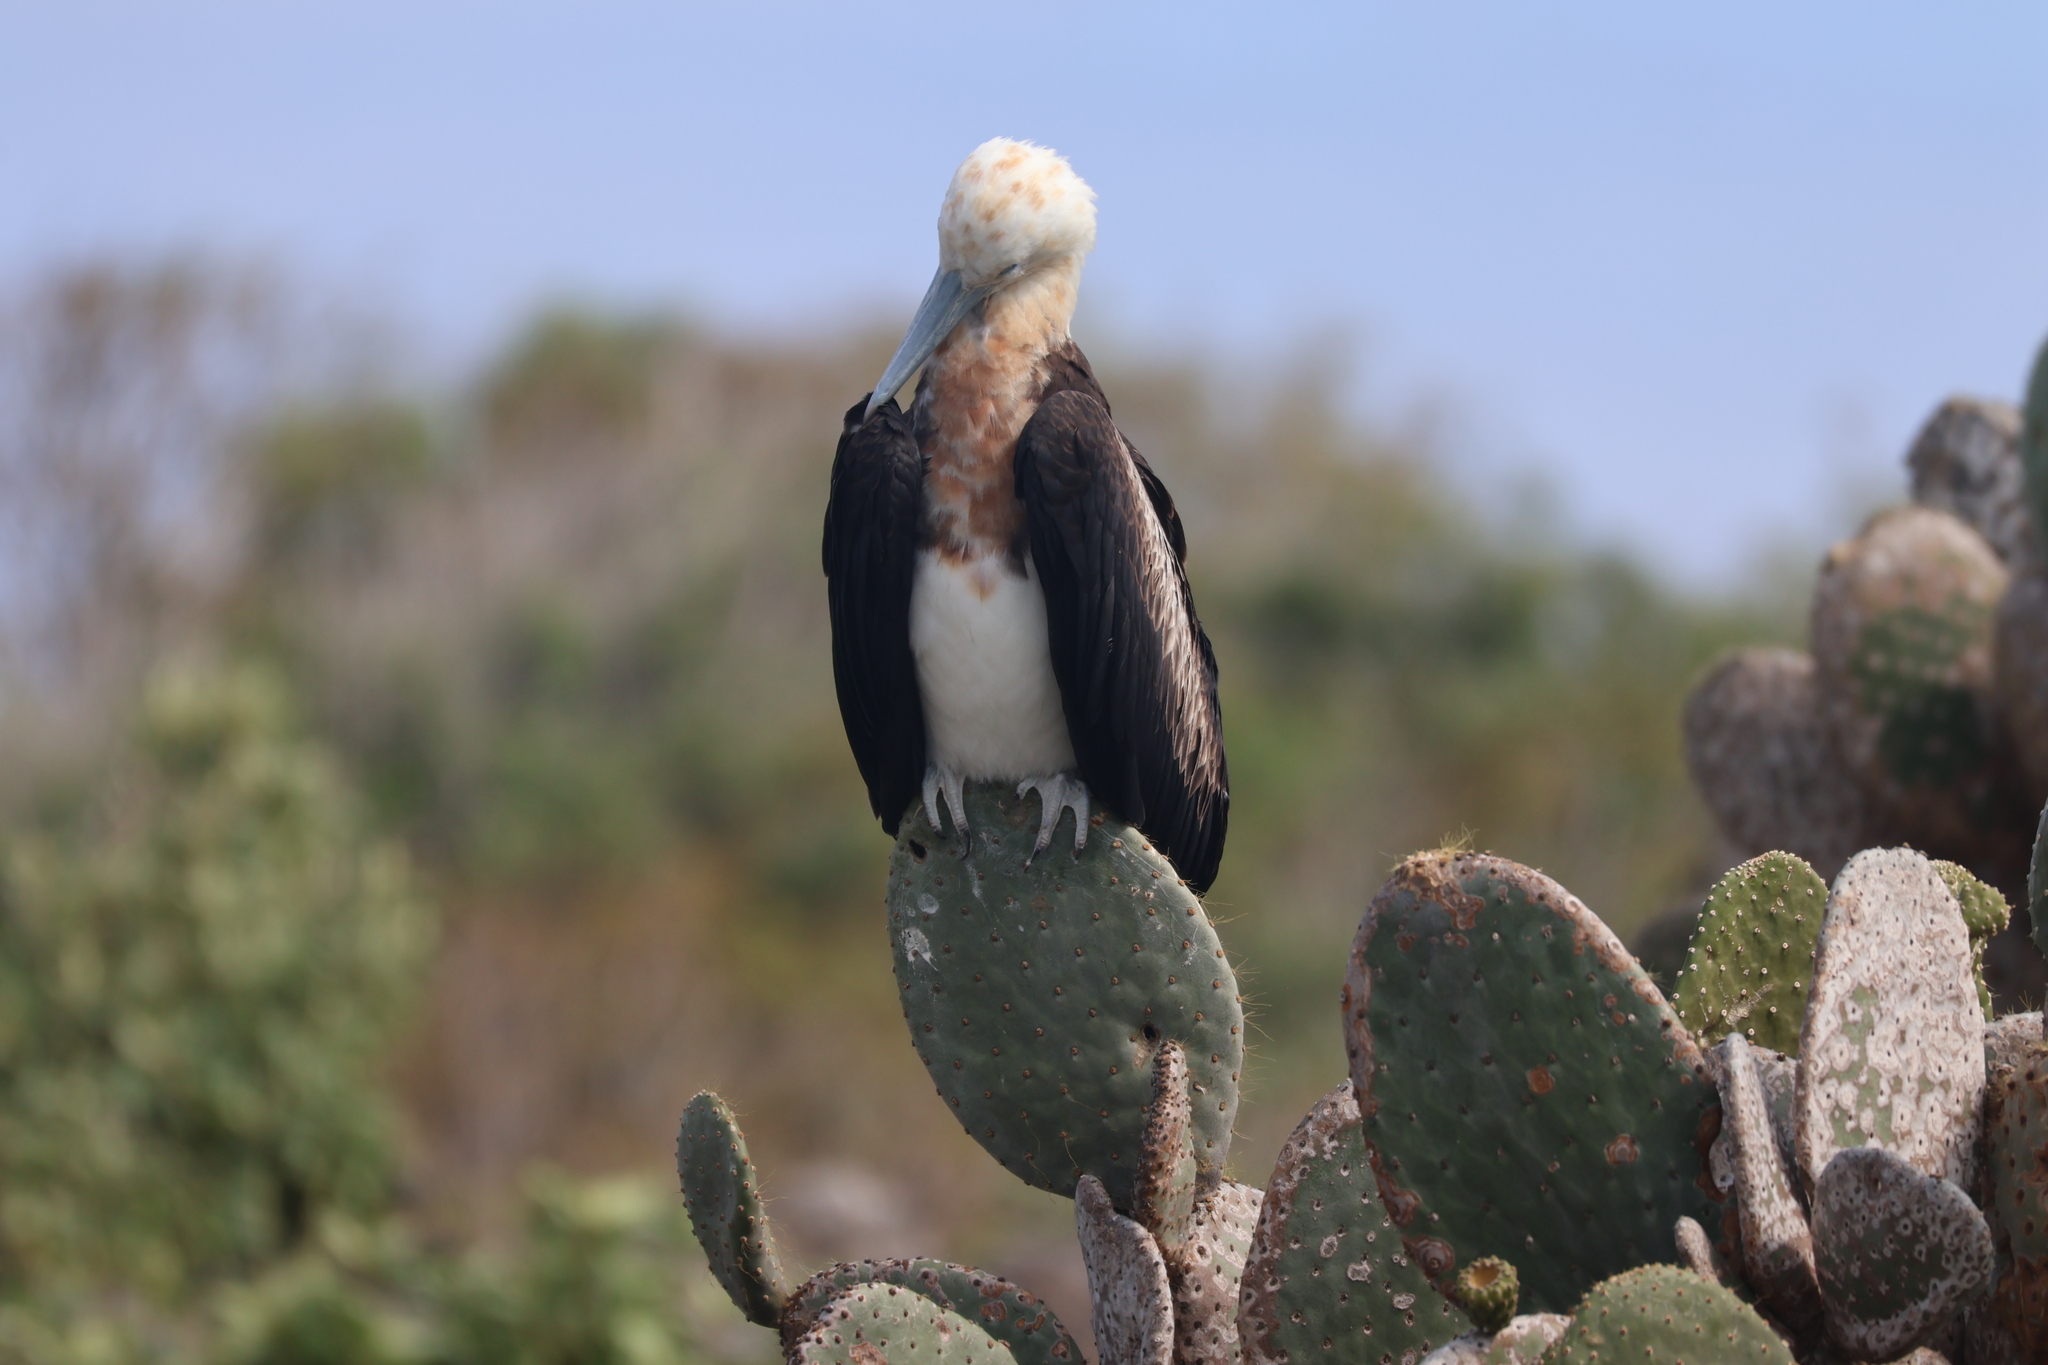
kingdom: Animalia
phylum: Chordata
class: Aves
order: Suliformes
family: Fregatidae
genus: Fregata
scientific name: Fregata minor
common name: Great frigatebird
